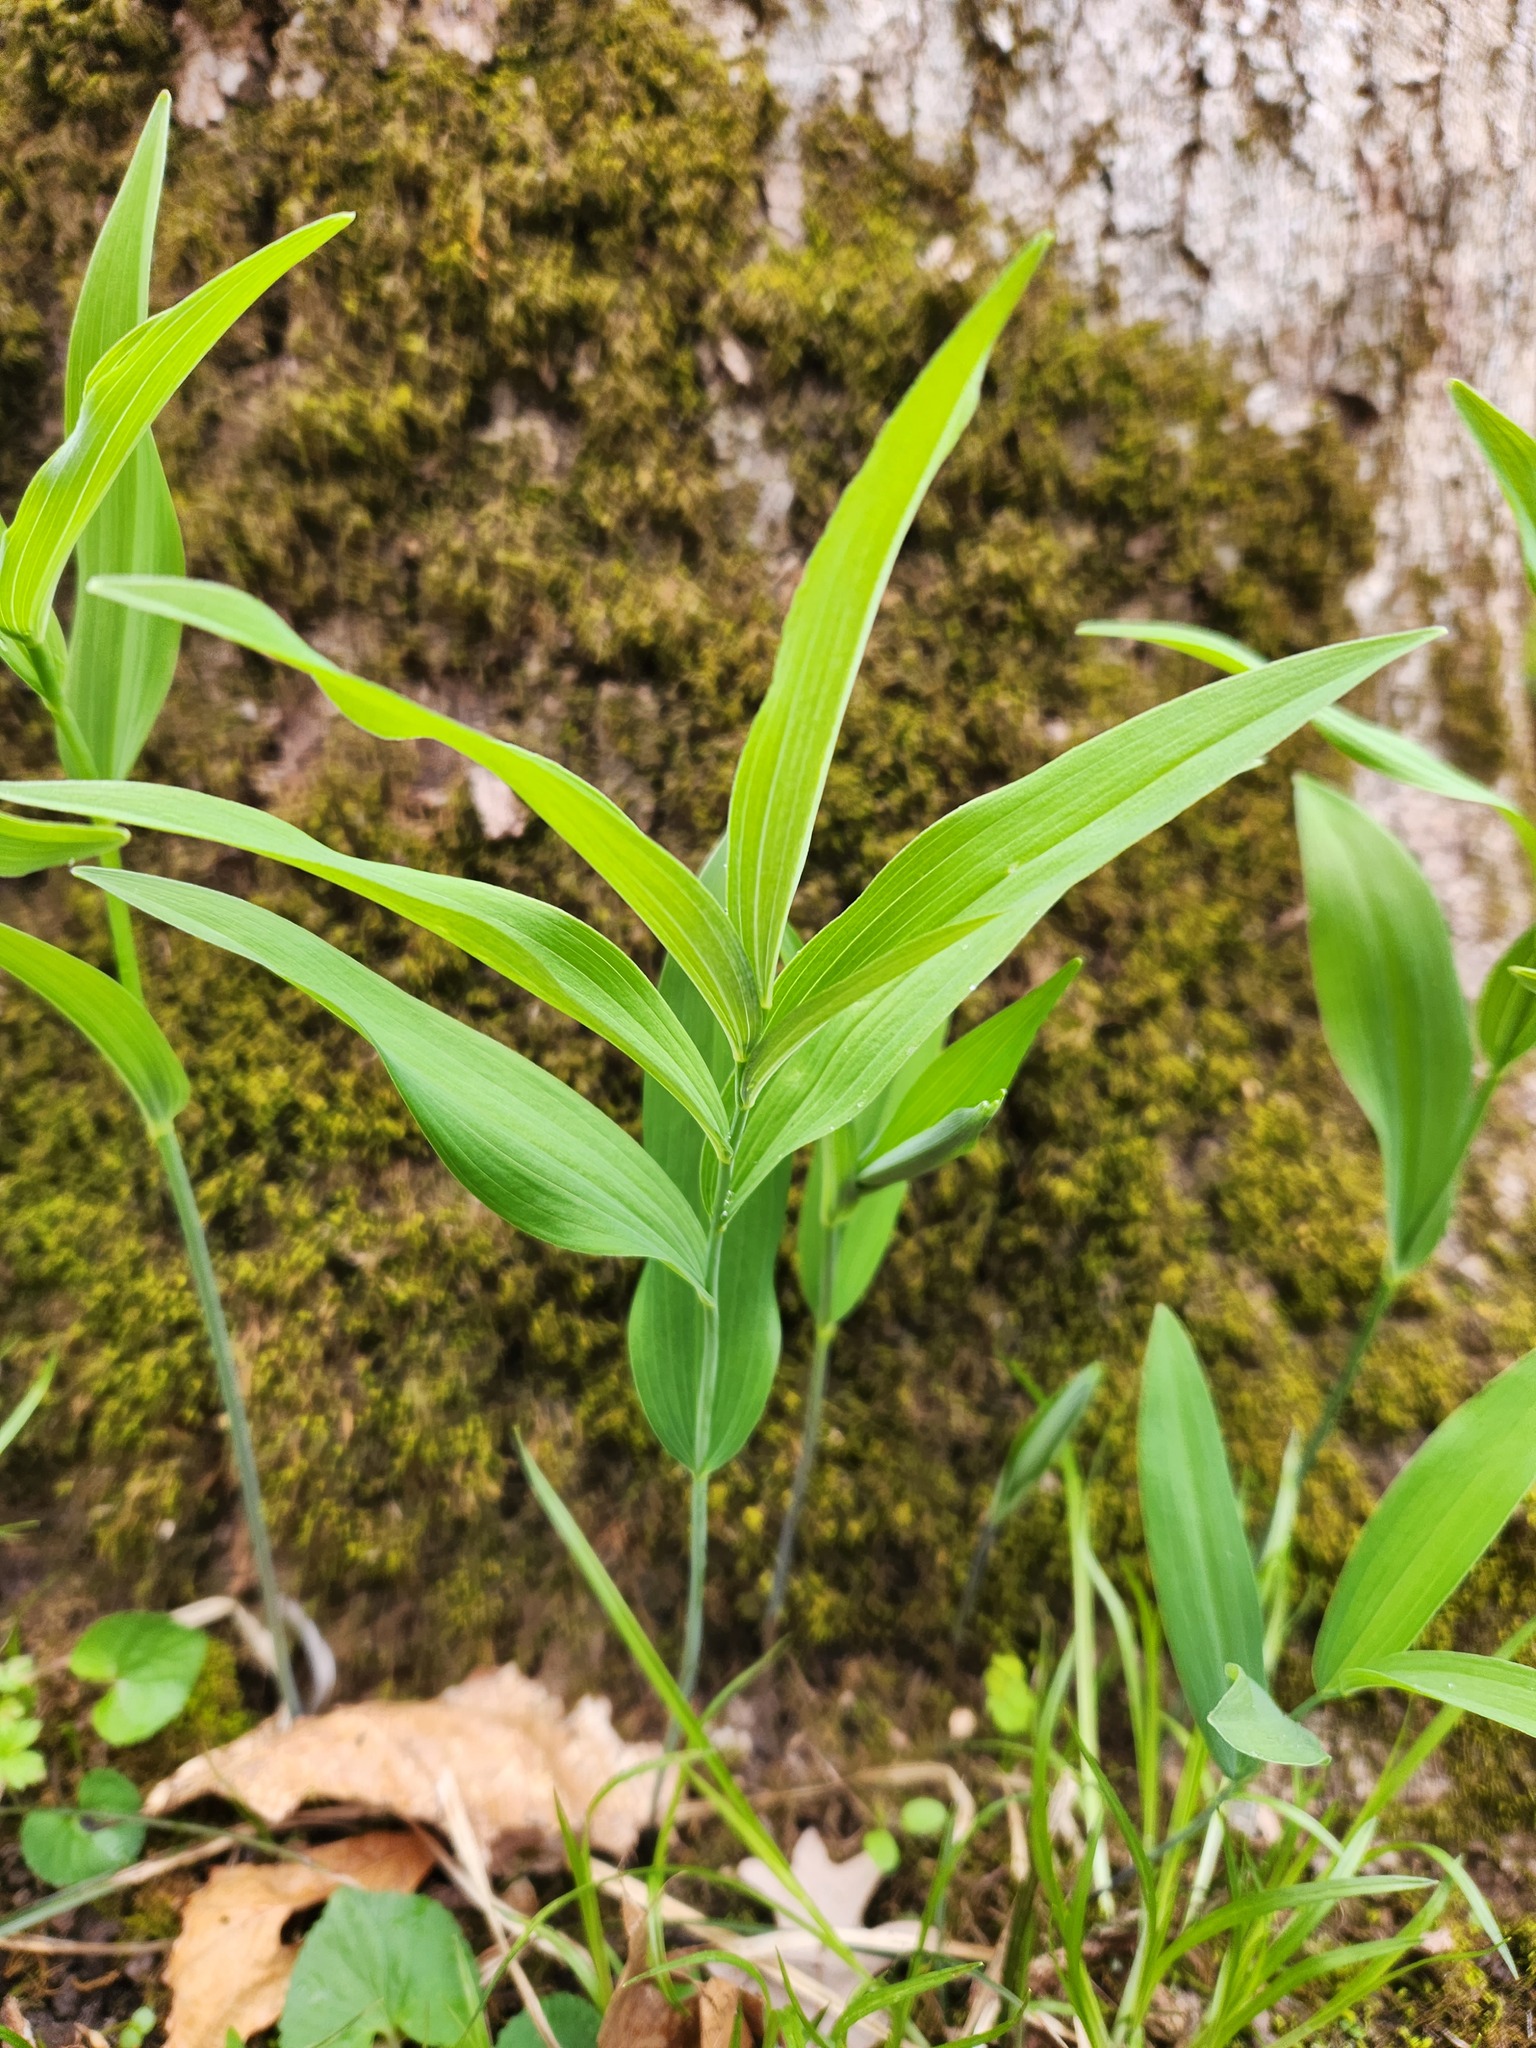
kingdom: Plantae
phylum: Tracheophyta
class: Liliopsida
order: Asparagales
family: Asparagaceae
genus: Polygonatum
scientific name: Polygonatum biflorum
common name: American solomon's-seal
